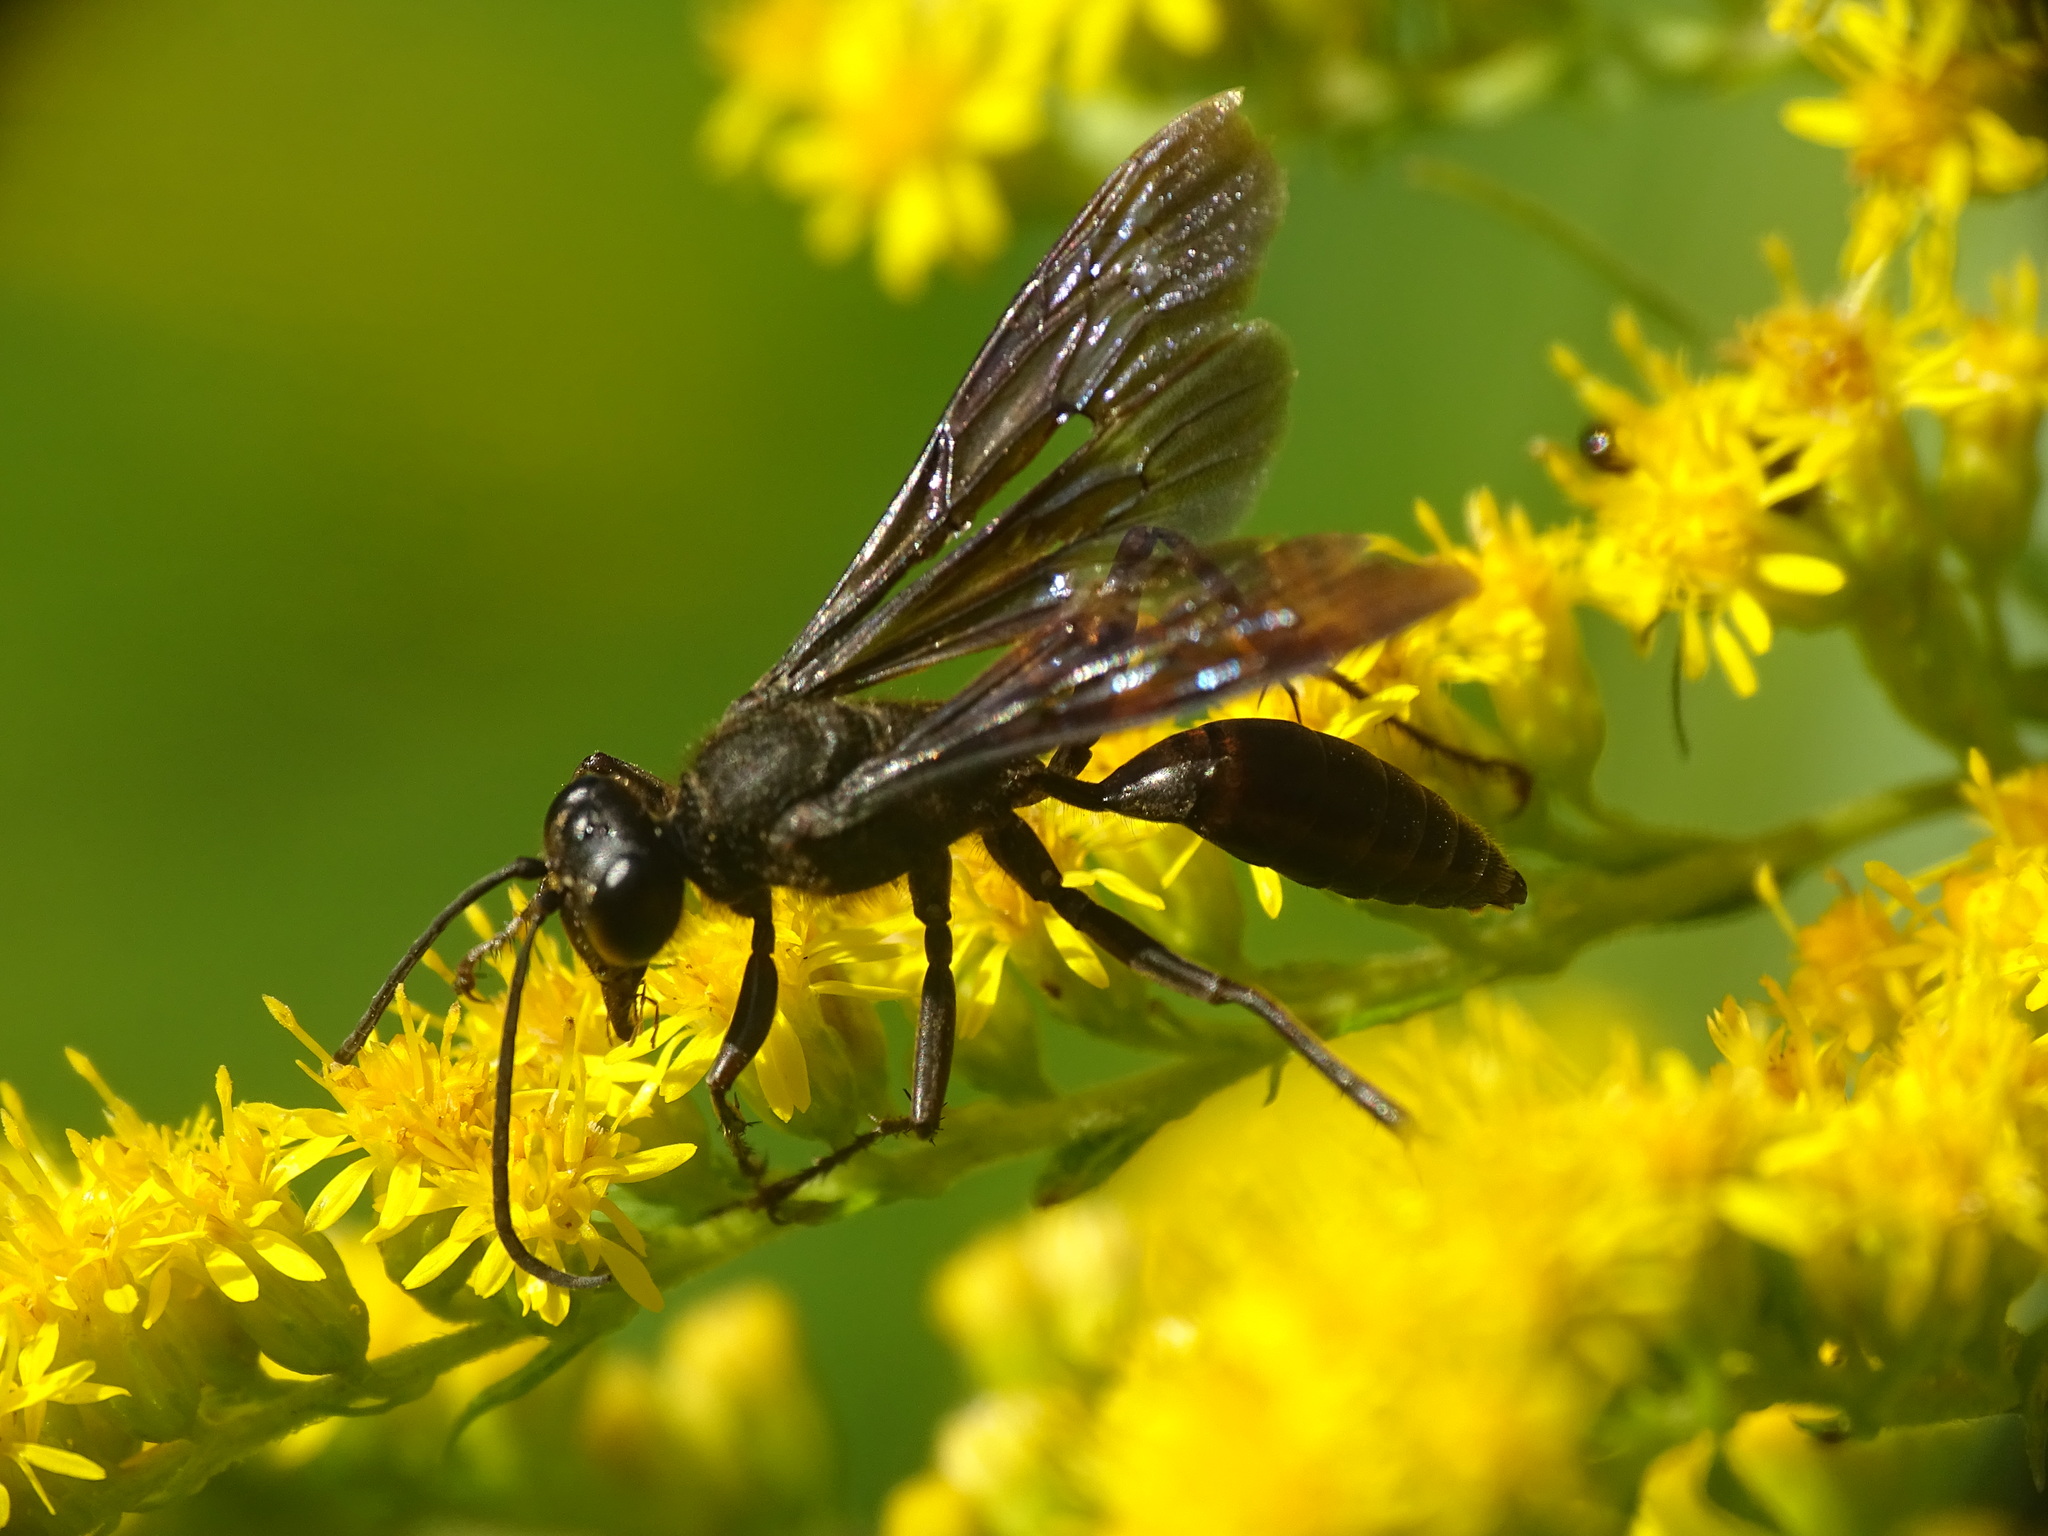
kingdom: Animalia
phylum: Arthropoda
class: Insecta
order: Hymenoptera
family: Sphecidae
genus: Sphex
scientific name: Sphex pensylvanicus
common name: Great black digger wasp
